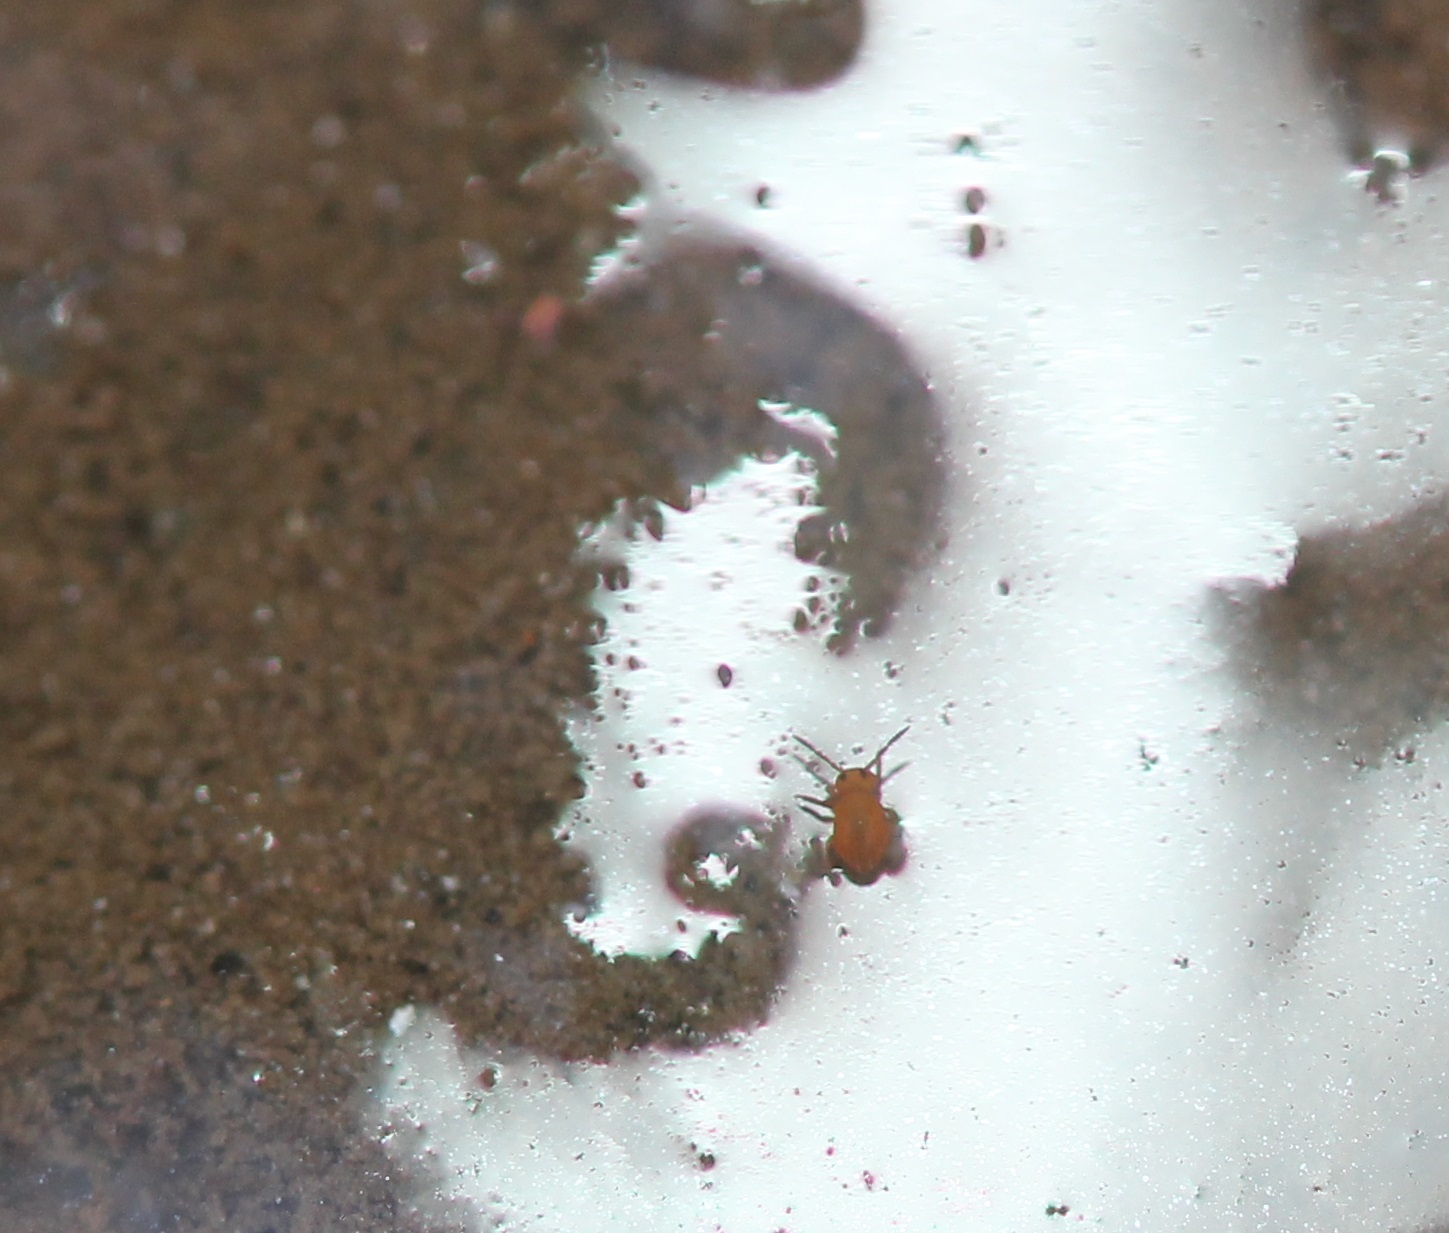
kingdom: Animalia
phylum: Arthropoda
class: Collembola
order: Symphypleona
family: Sminthurididae
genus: Sminthurides
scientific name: Sminthurides aquaticus
